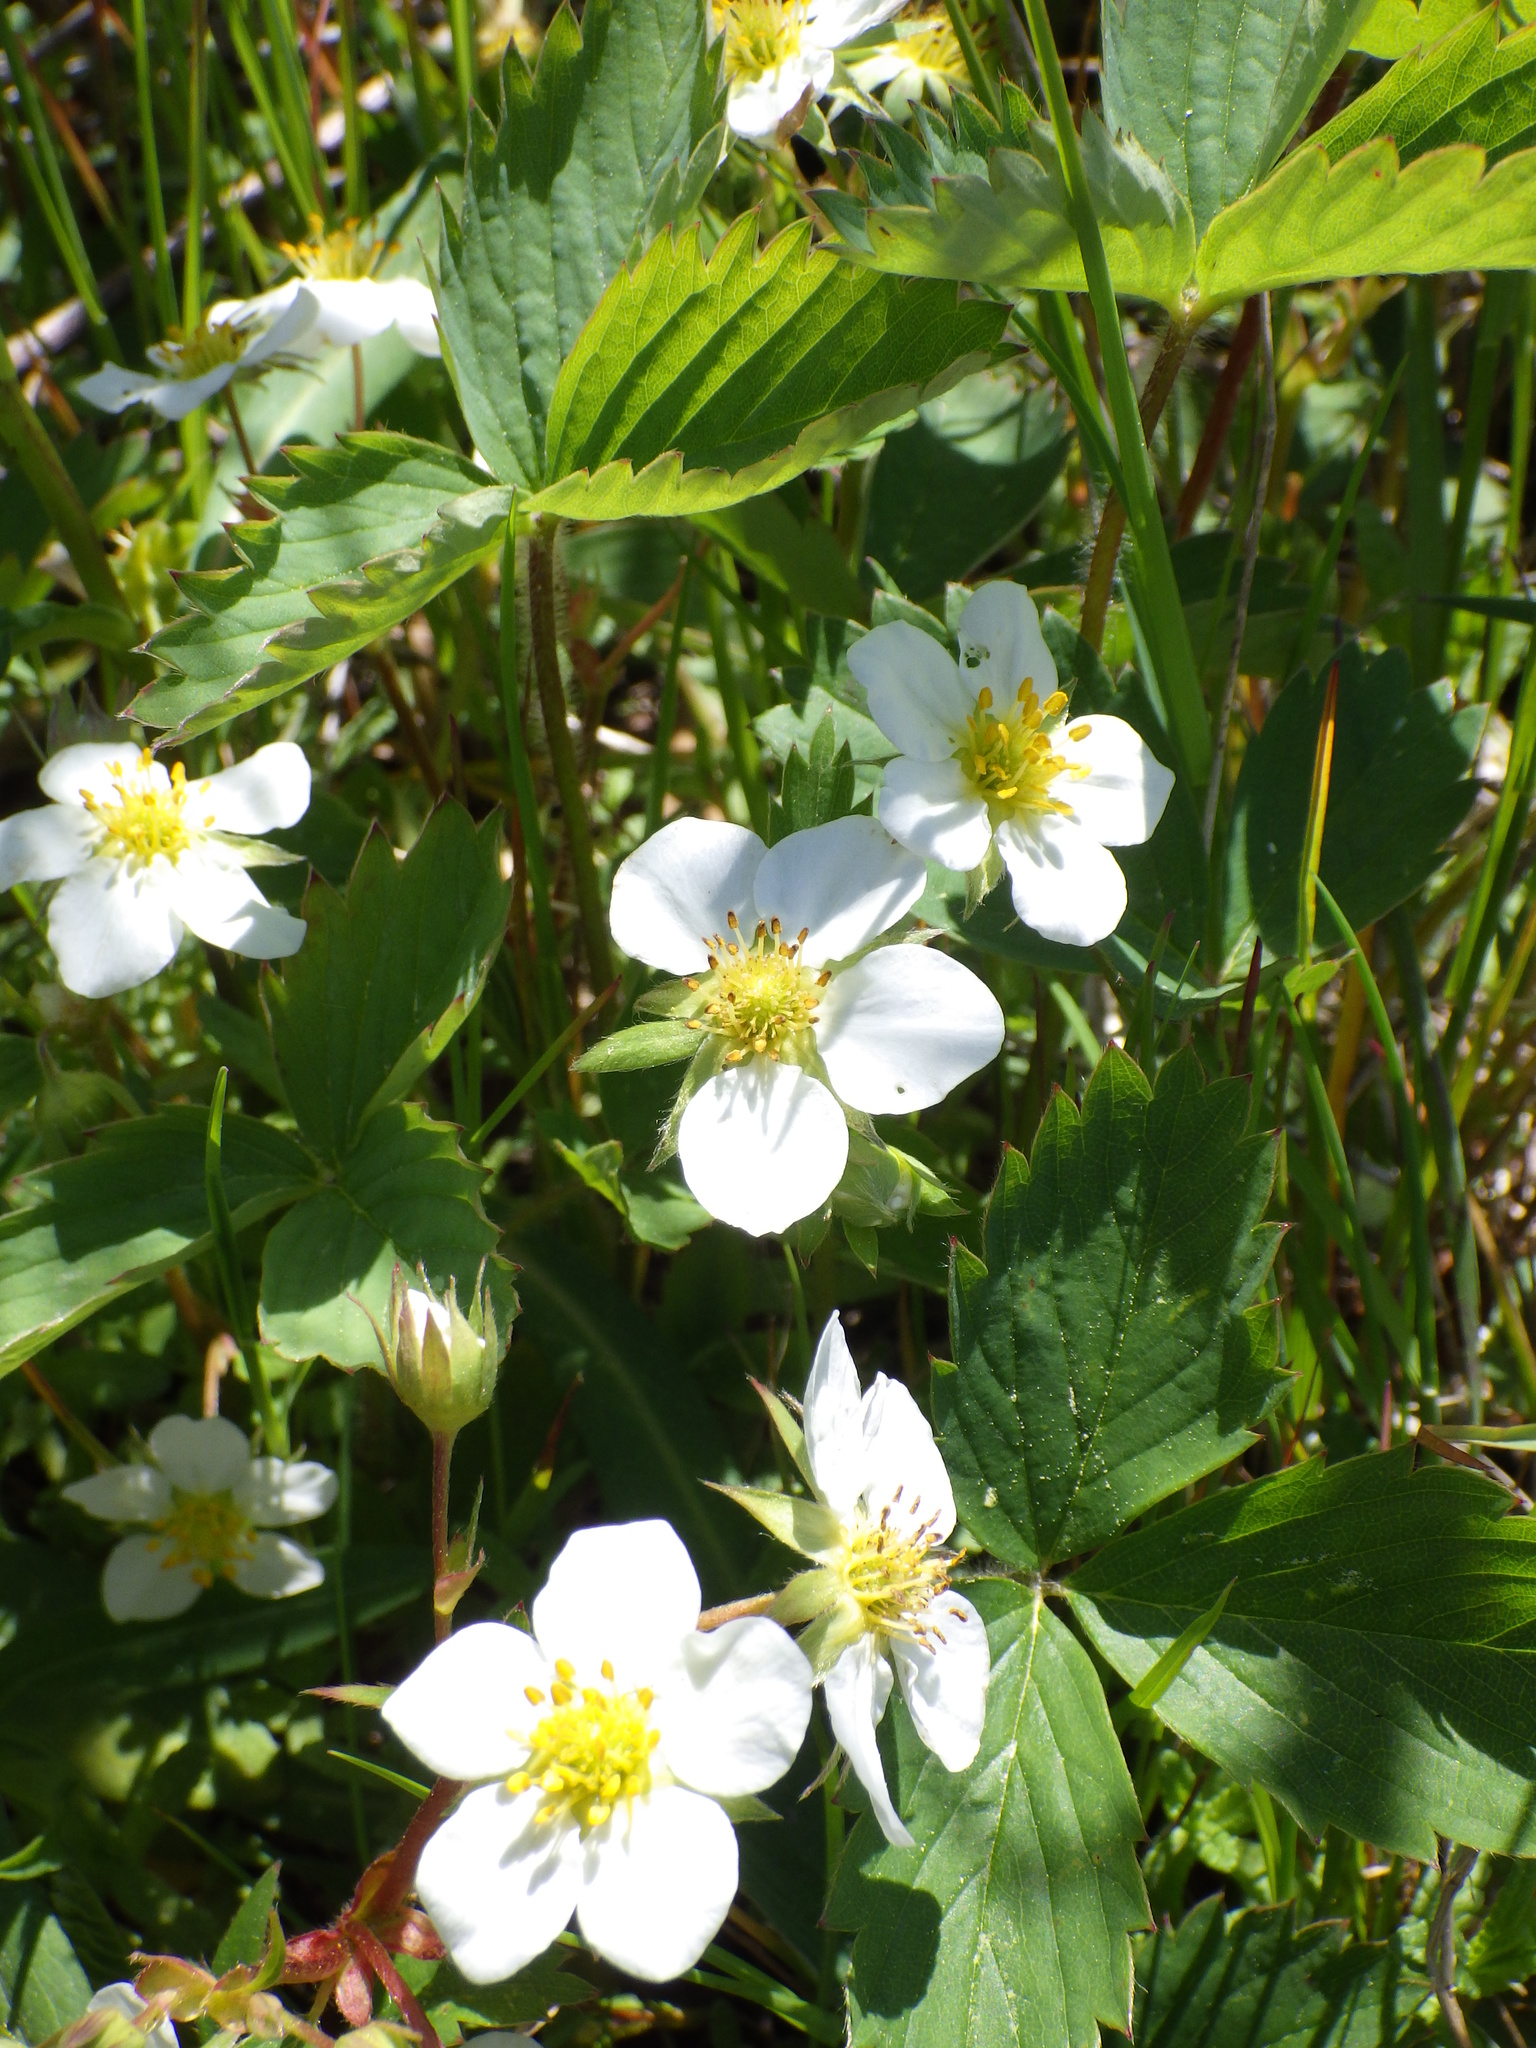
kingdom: Plantae
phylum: Tracheophyta
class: Magnoliopsida
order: Rosales
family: Rosaceae
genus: Fragaria
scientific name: Fragaria virginiana
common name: Thickleaved wild strawberry
